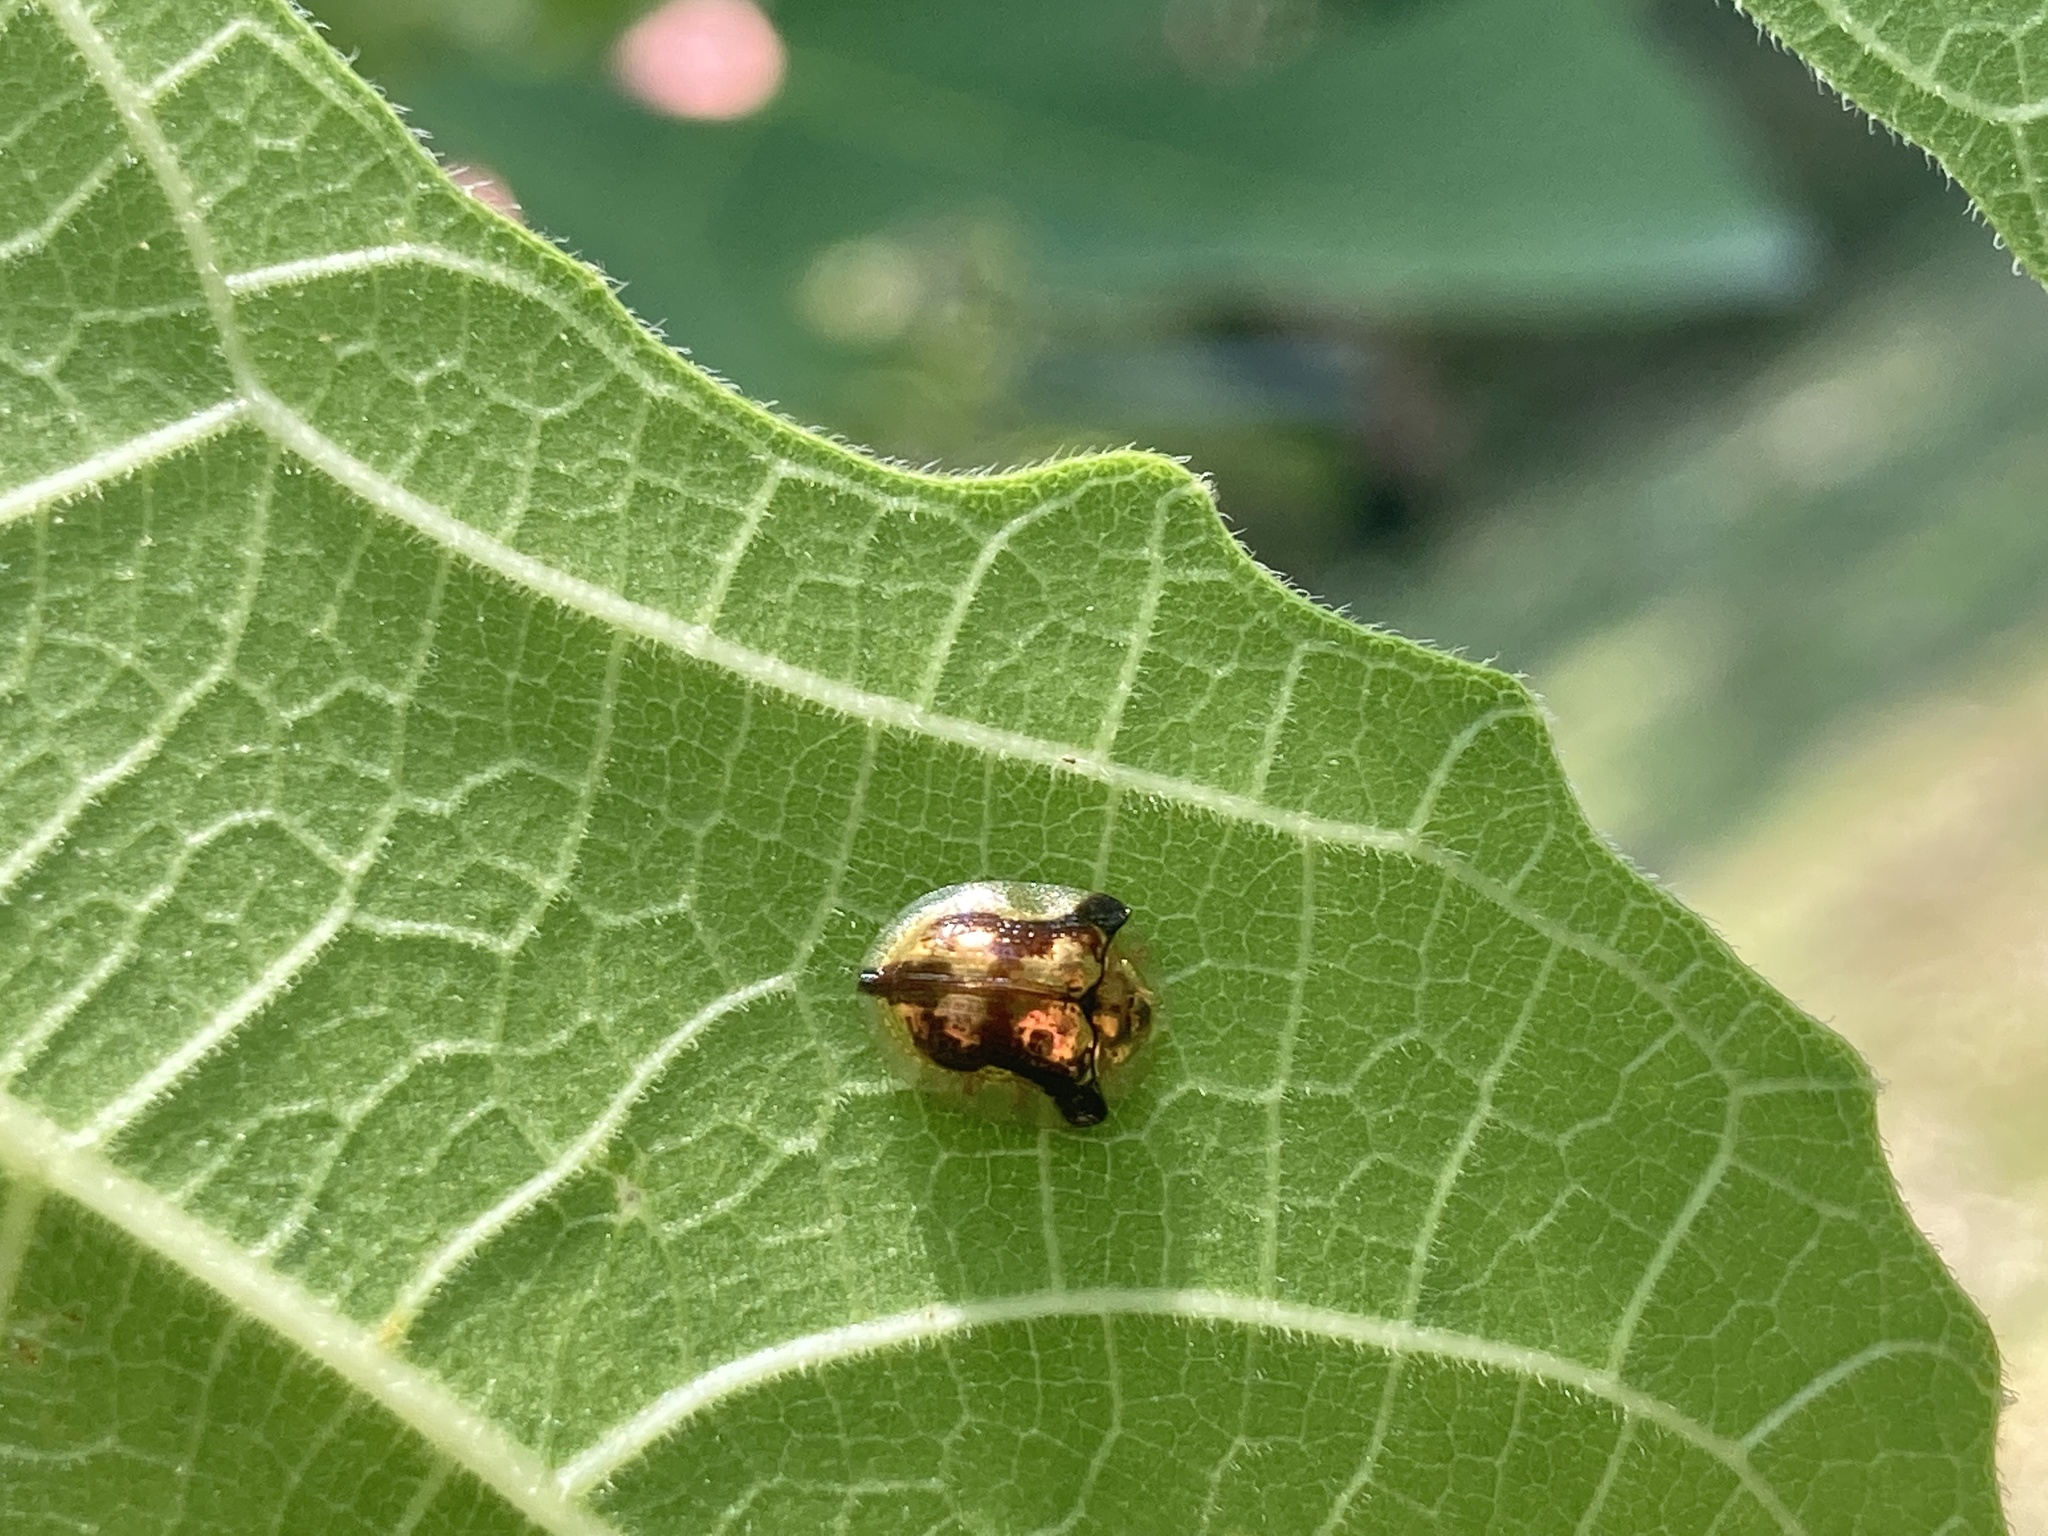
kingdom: Animalia
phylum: Arthropoda
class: Insecta
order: Coleoptera
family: Chrysomelidae
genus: Deloyala
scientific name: Deloyala guttata
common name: Mottled tortoise beetle
